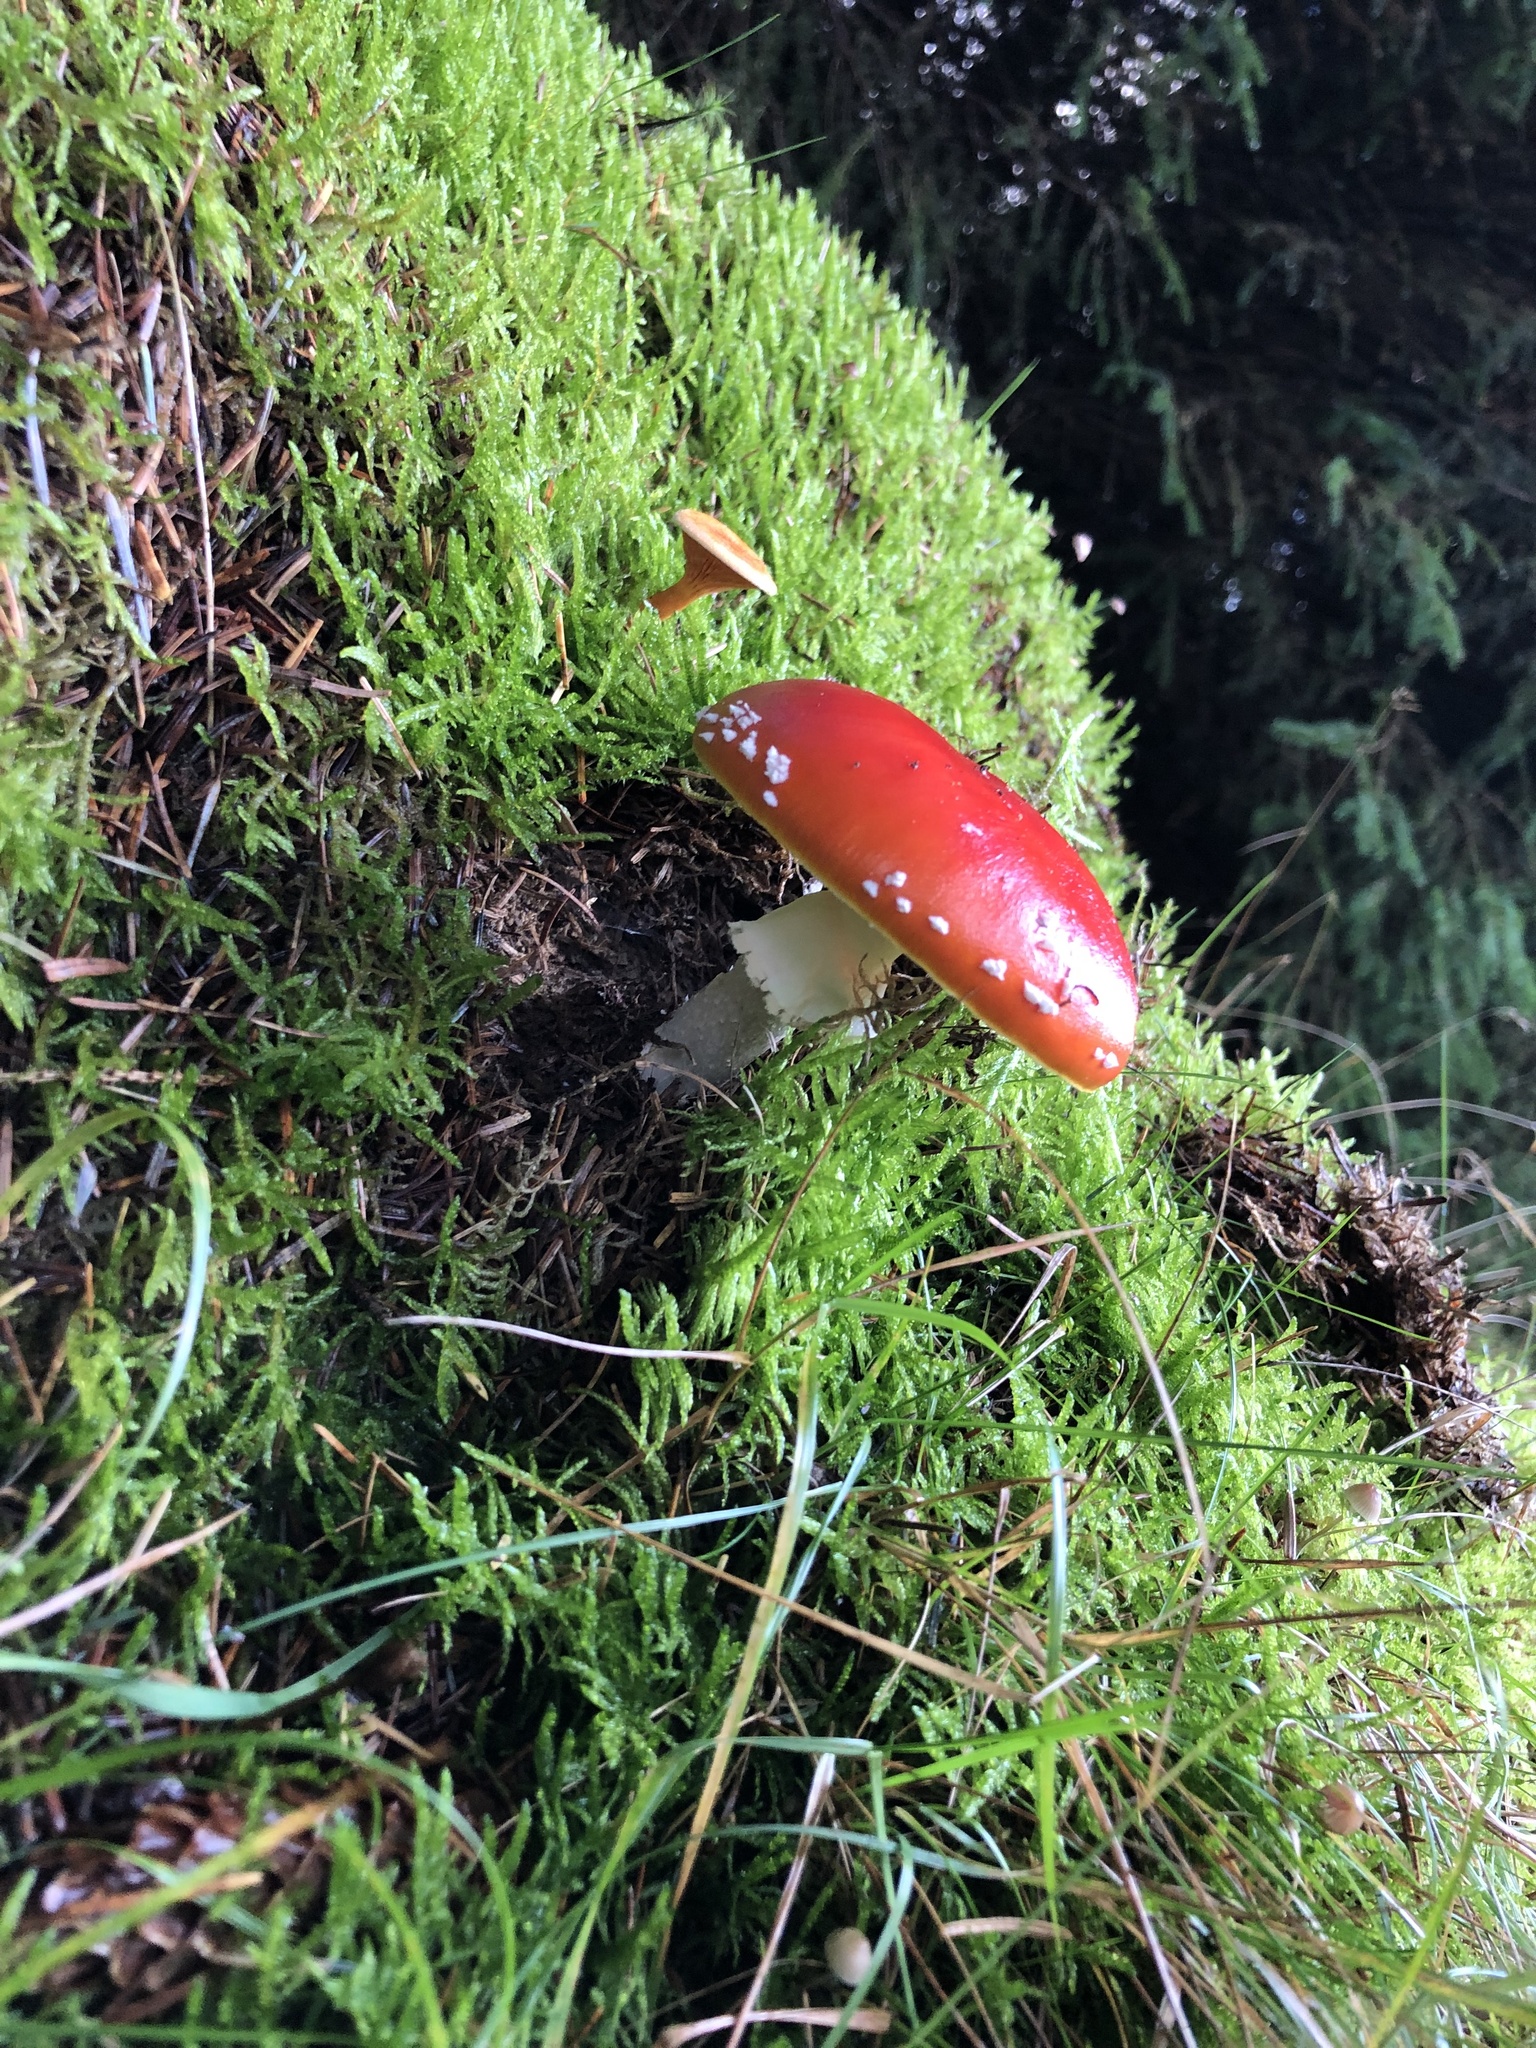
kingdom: Fungi
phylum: Basidiomycota
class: Agaricomycetes
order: Agaricales
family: Amanitaceae
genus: Amanita
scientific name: Amanita muscaria
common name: Fly agaric
